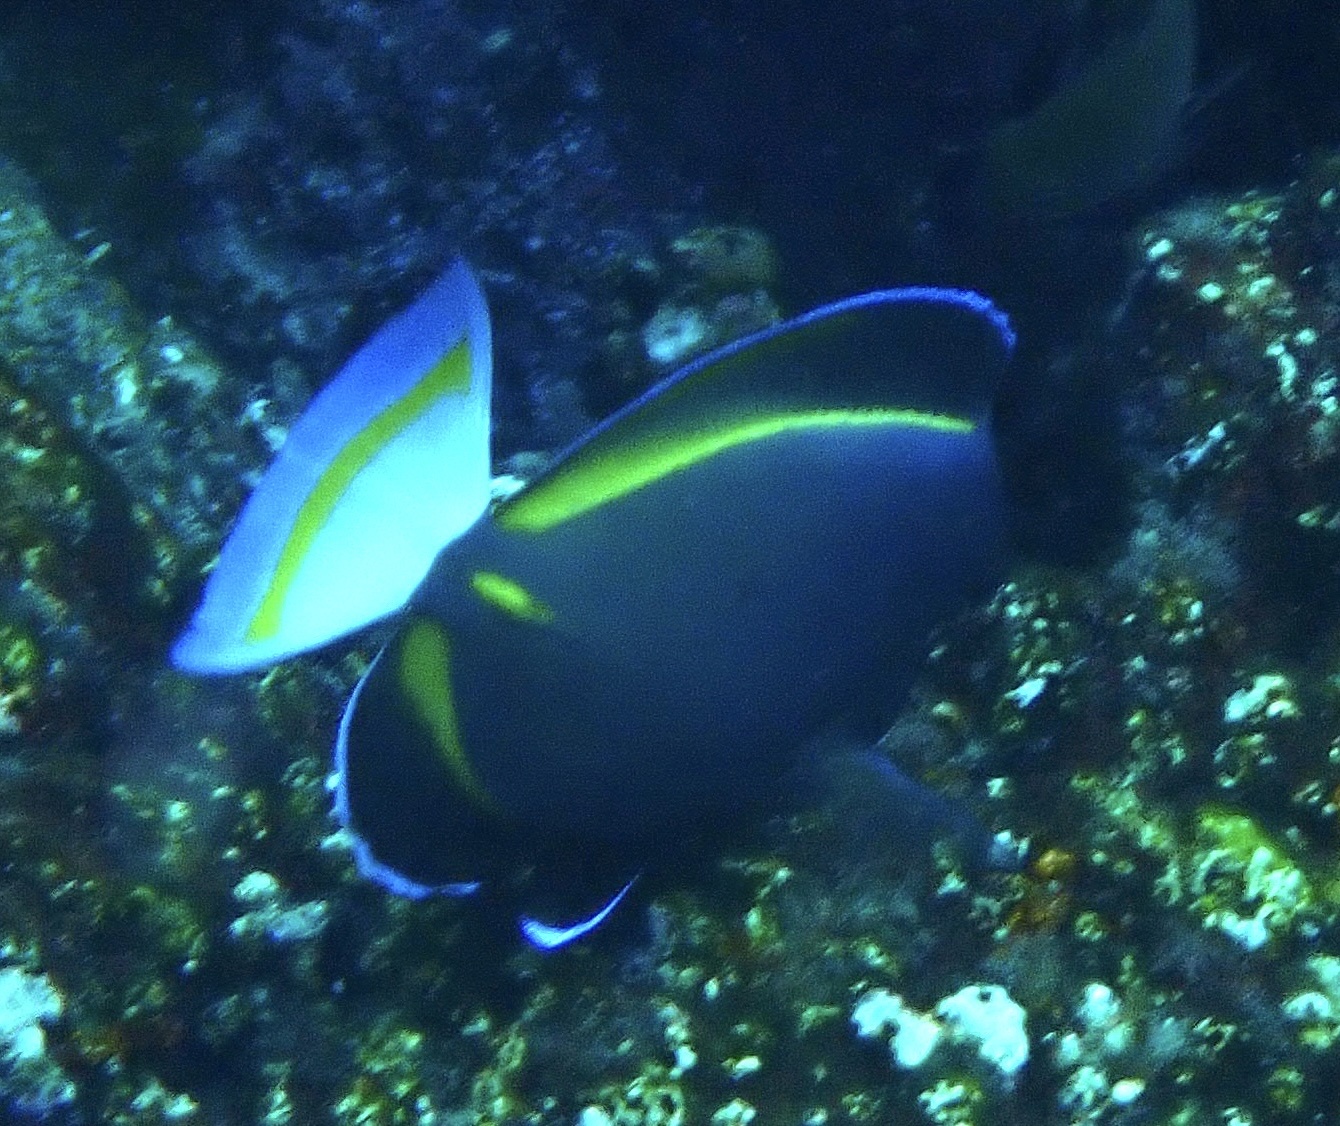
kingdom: Animalia
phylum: Chordata
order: Perciformes
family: Acanthuridae
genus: Acanthurus
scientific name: Acanthurus nigricans
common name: Whitecheek surgeonfish
